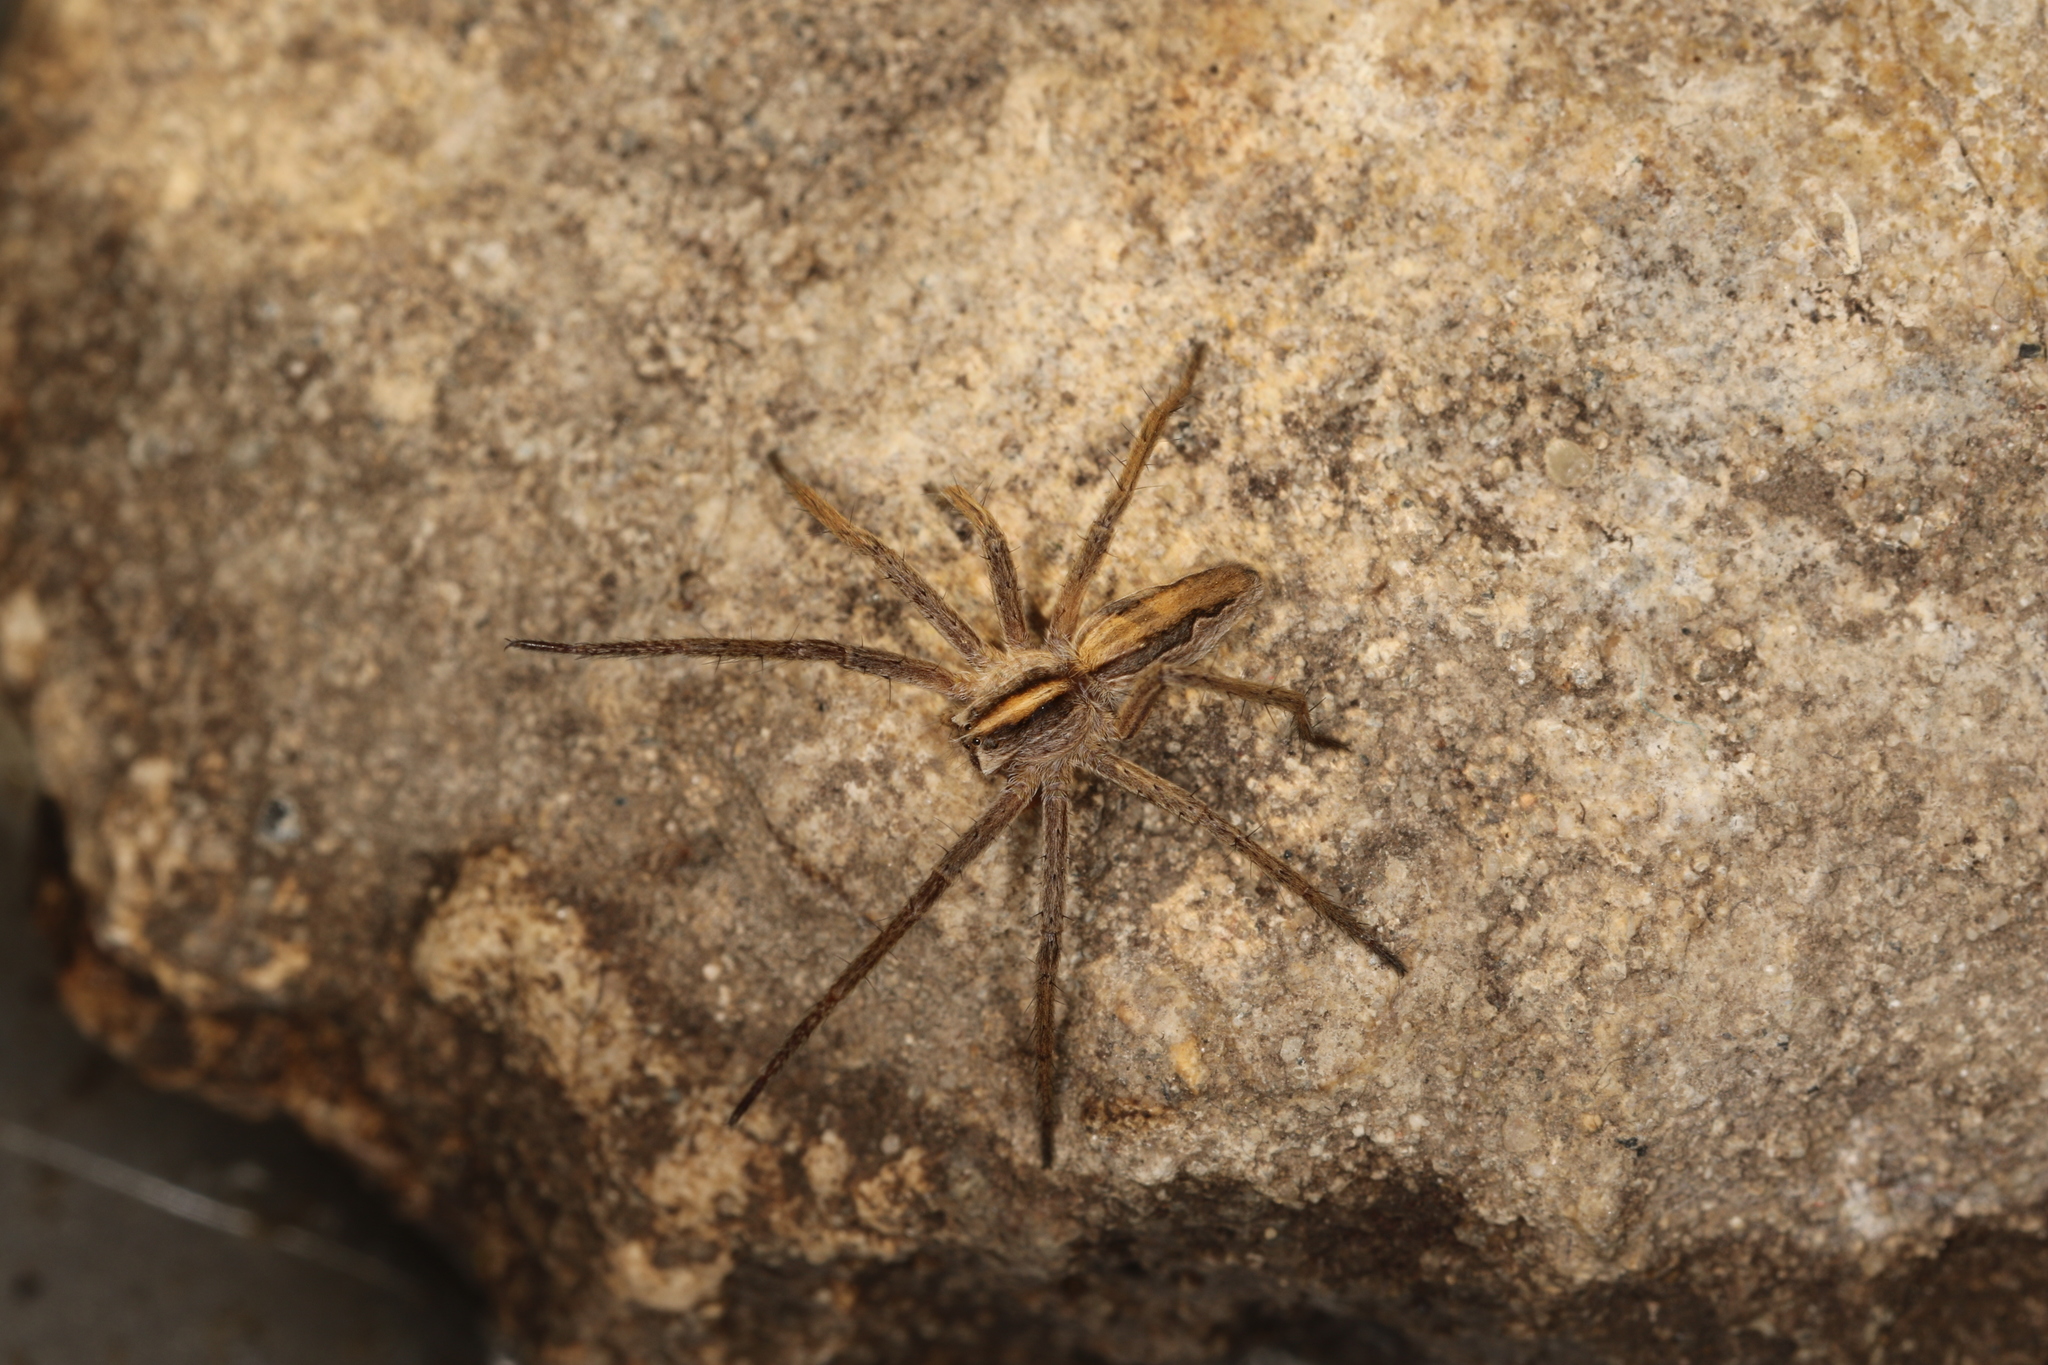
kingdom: Animalia
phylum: Arthropoda
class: Arachnida
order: Araneae
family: Pisauridae
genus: Pisaura
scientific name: Pisaura mirabilis
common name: Tent spider
